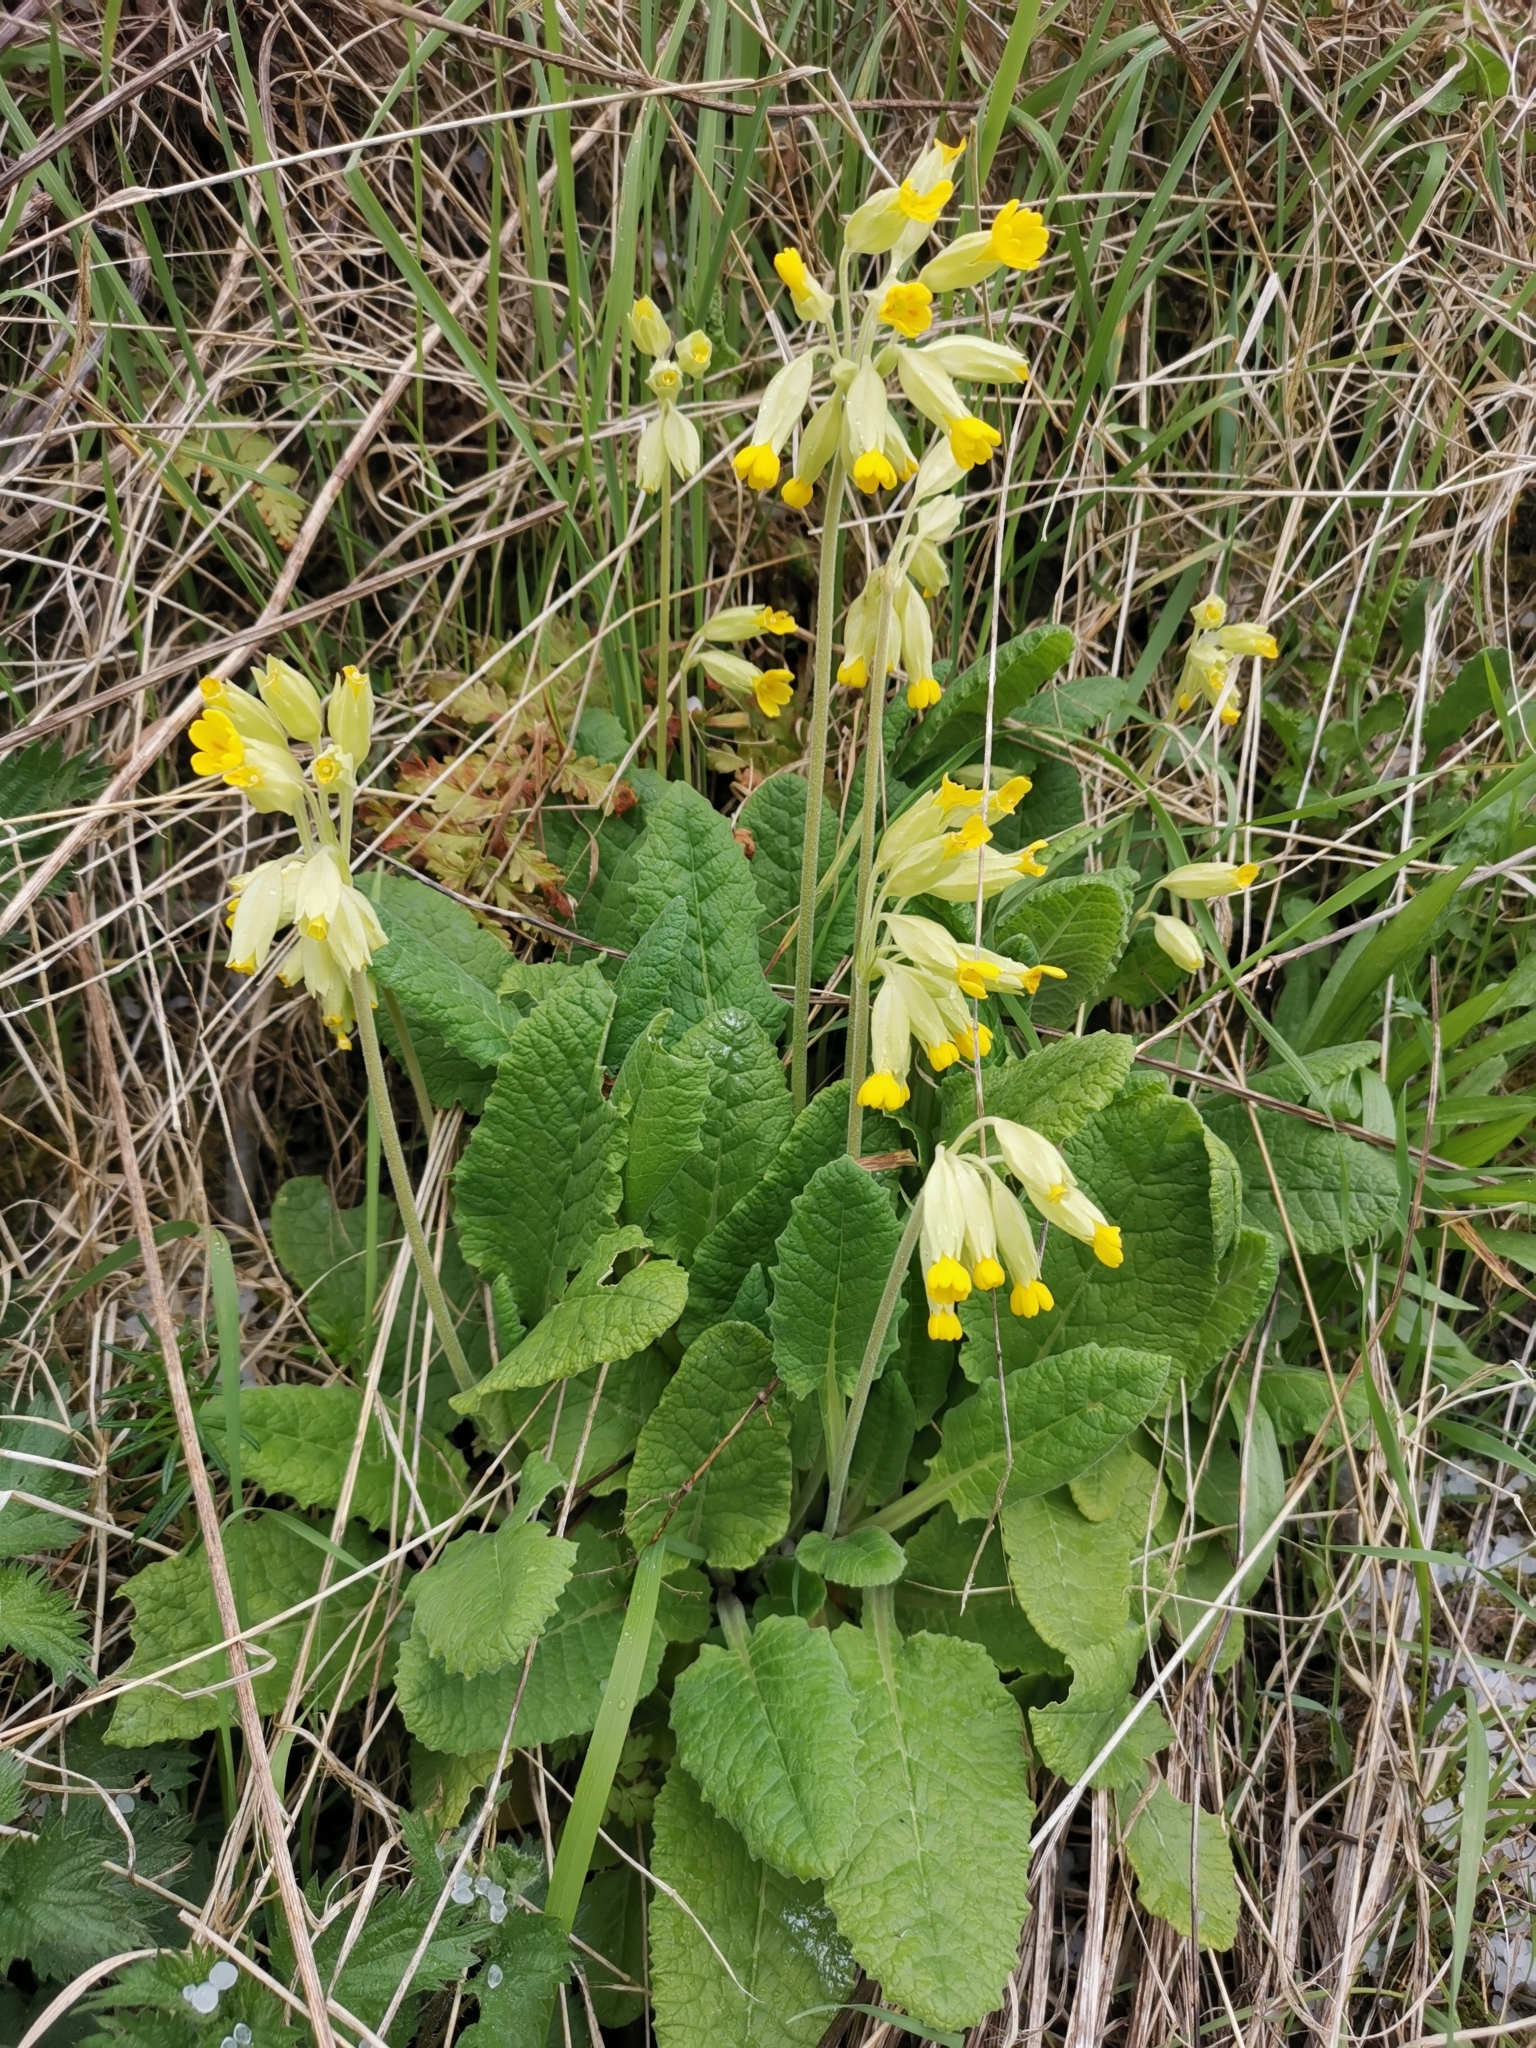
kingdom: Plantae
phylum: Tracheophyta
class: Magnoliopsida
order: Ericales
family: Primulaceae
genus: Primula
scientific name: Primula veris
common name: Cowslip
